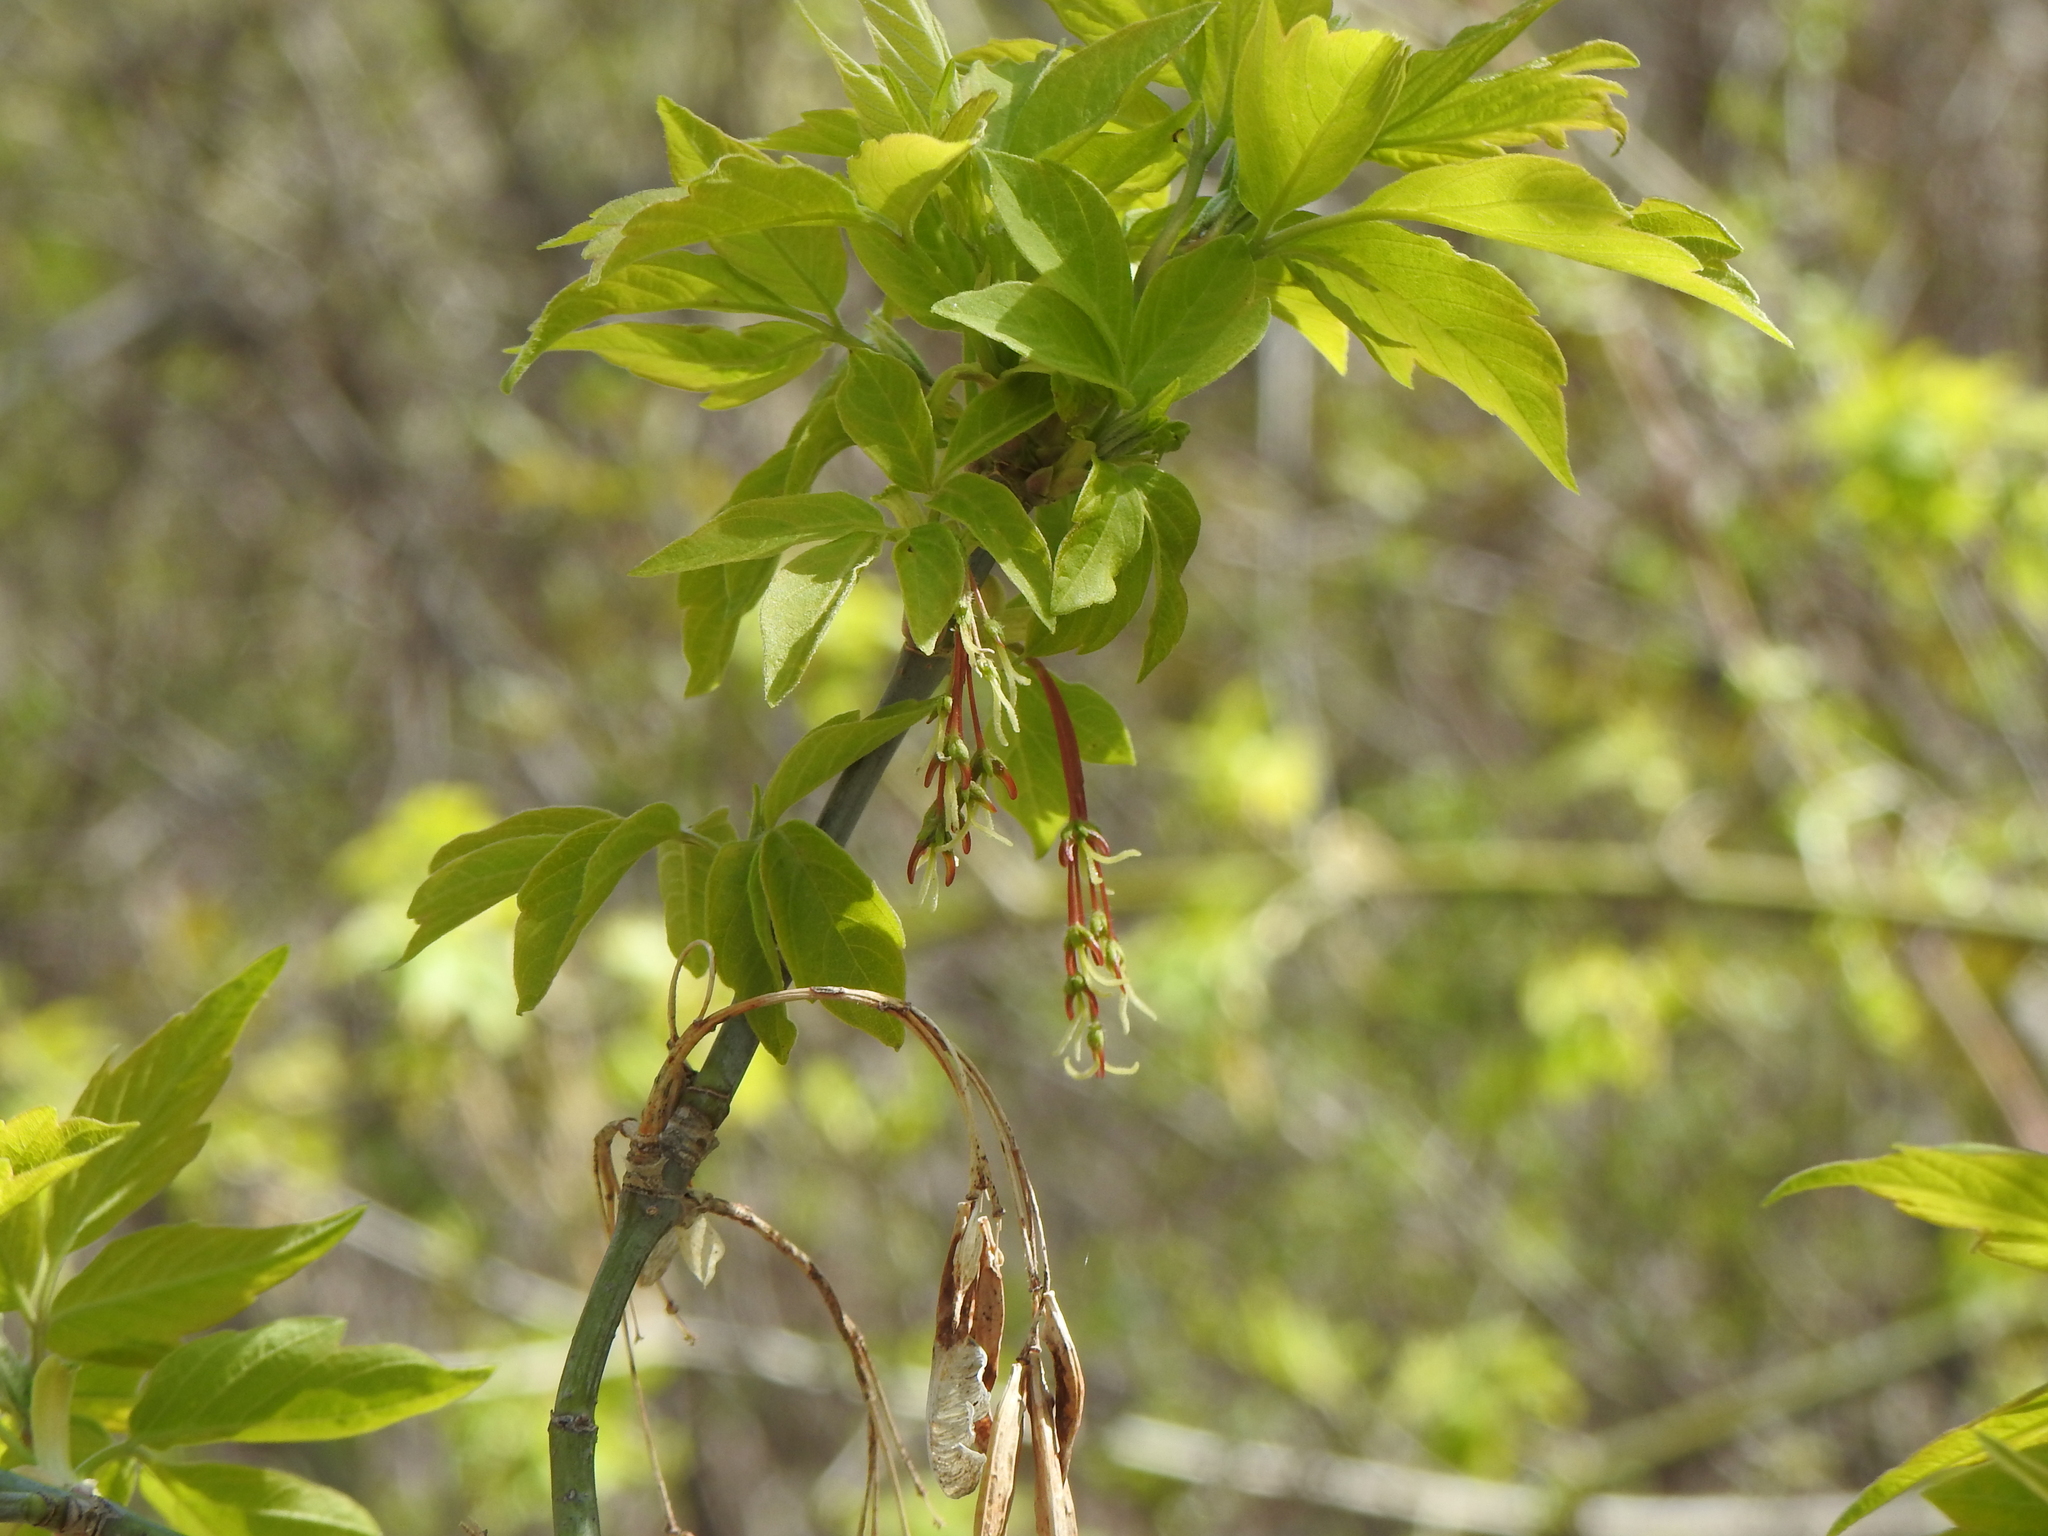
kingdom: Plantae
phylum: Tracheophyta
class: Magnoliopsida
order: Sapindales
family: Sapindaceae
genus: Acer
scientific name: Acer negundo
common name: Ashleaf maple
